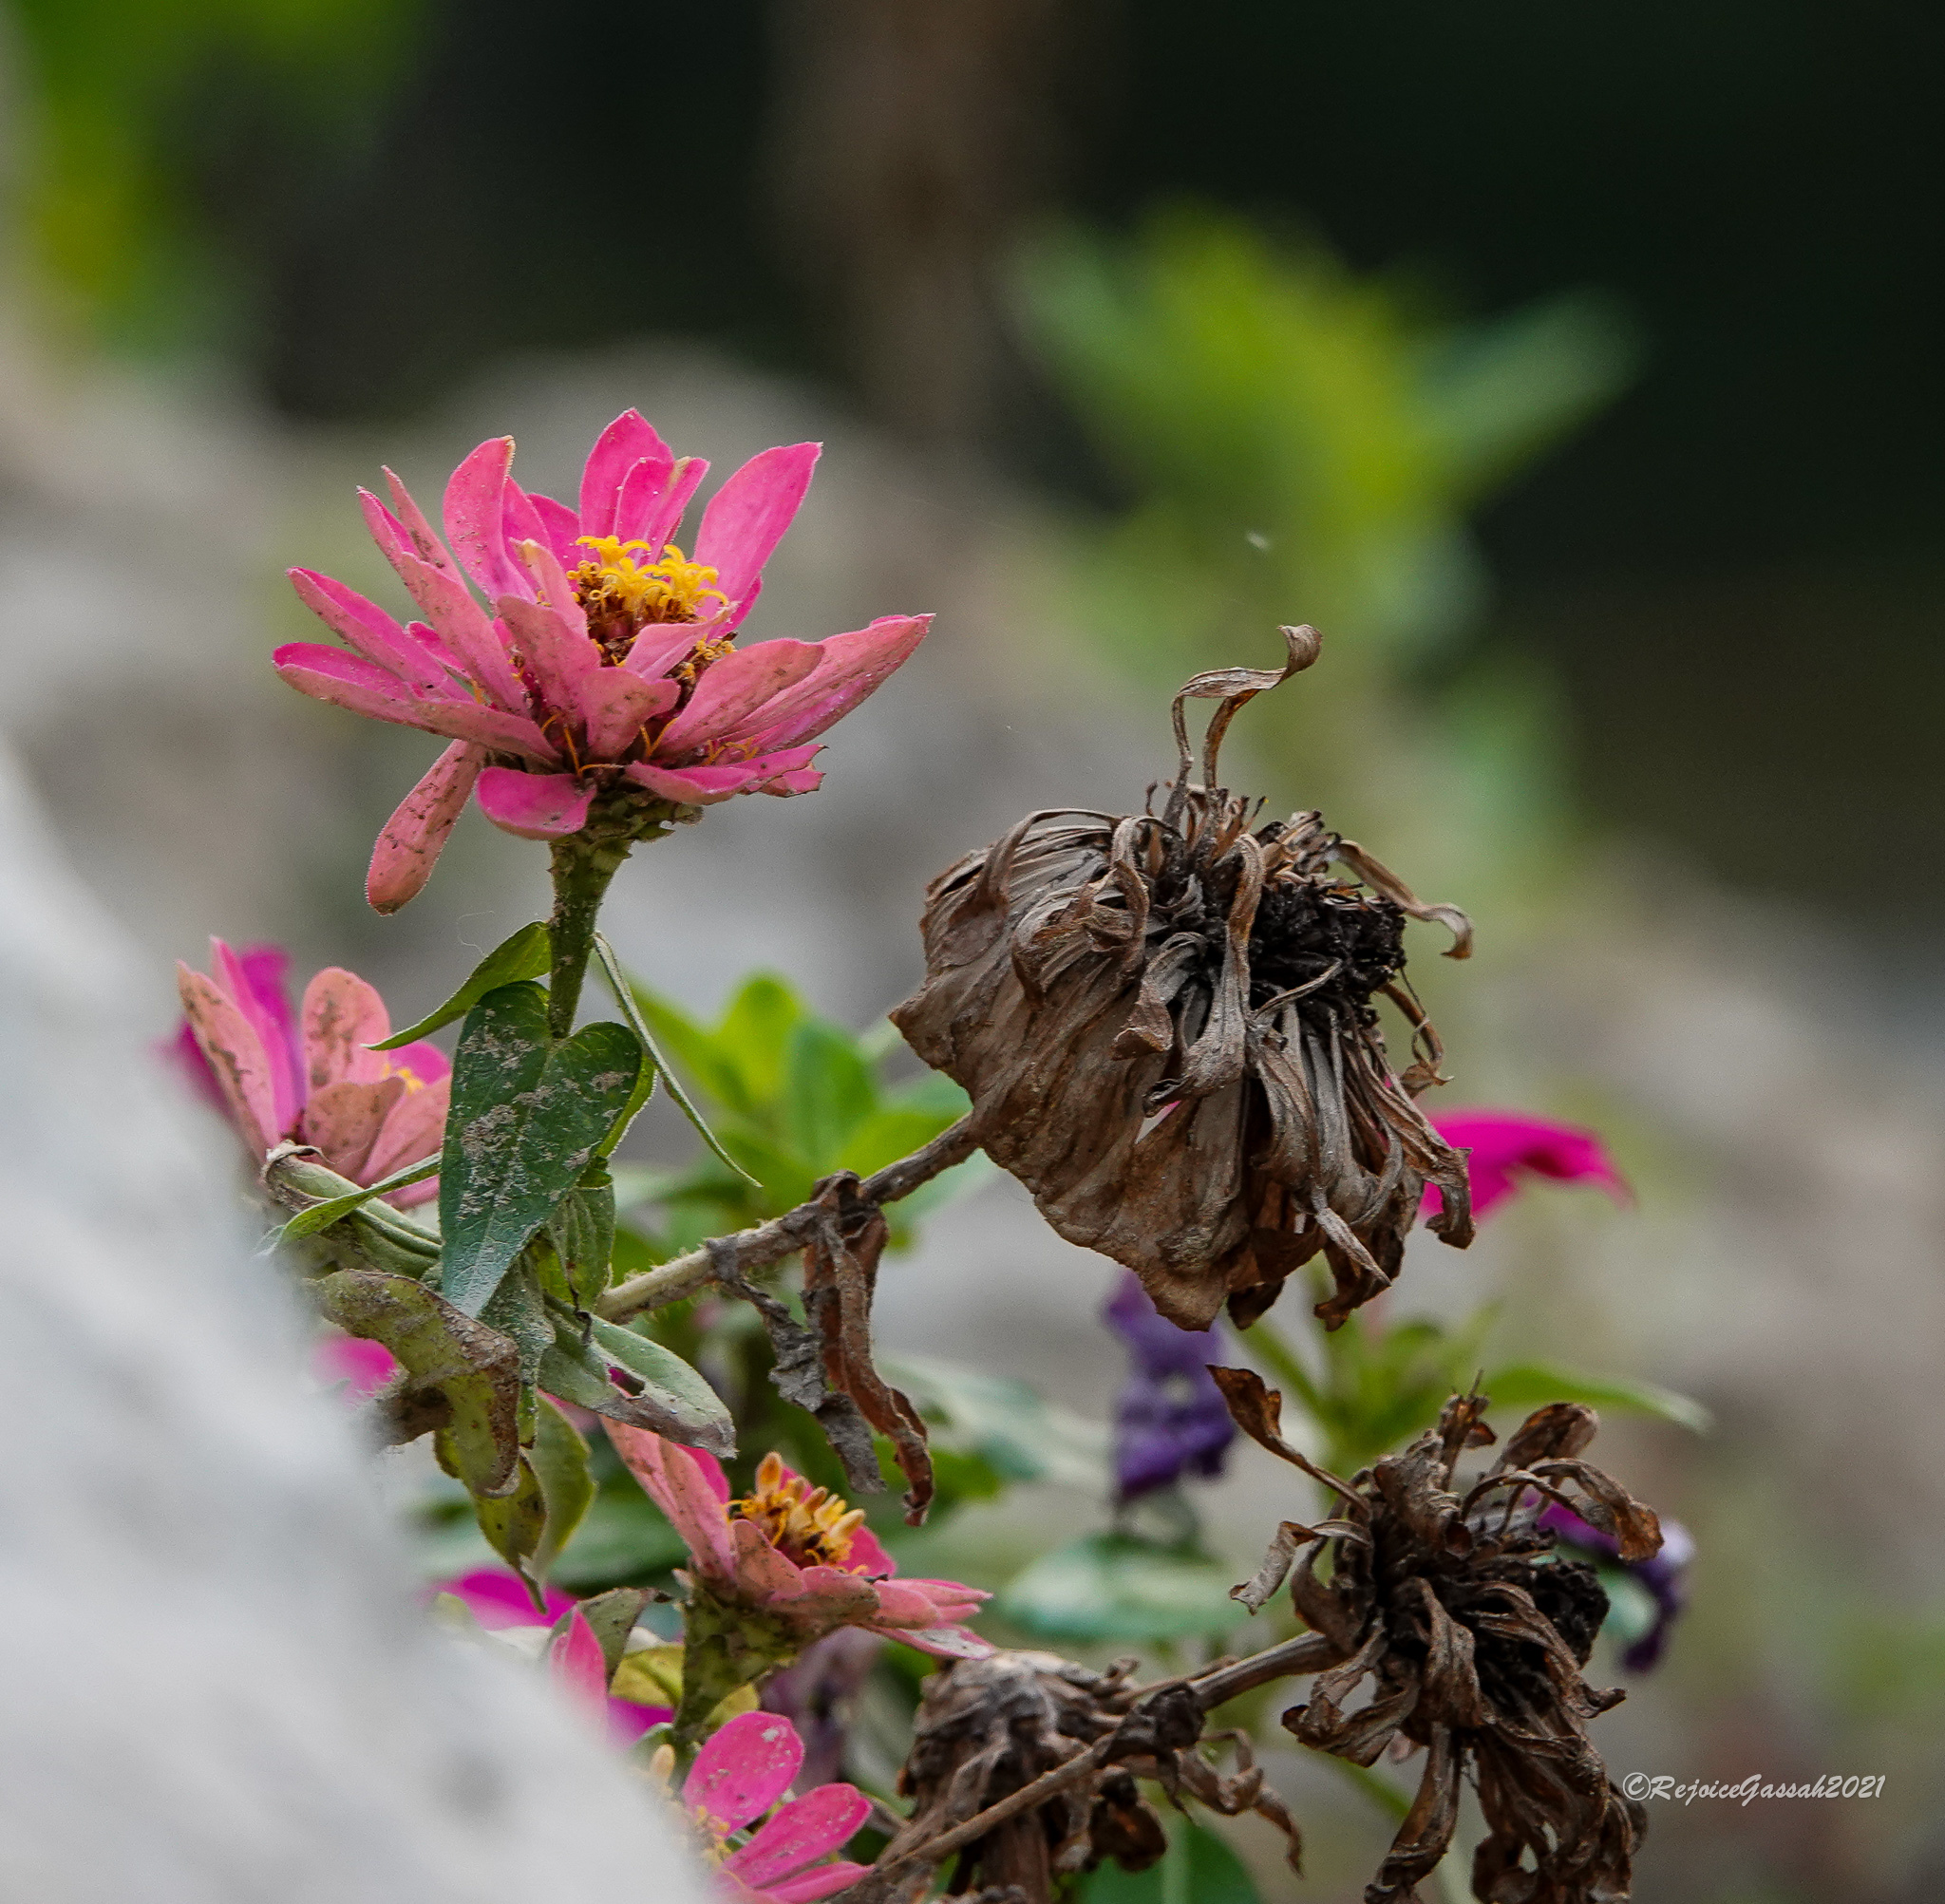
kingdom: Plantae
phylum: Tracheophyta
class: Magnoliopsida
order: Asterales
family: Asteraceae
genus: Zinnia
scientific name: Zinnia elegans
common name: Youth-and-age
